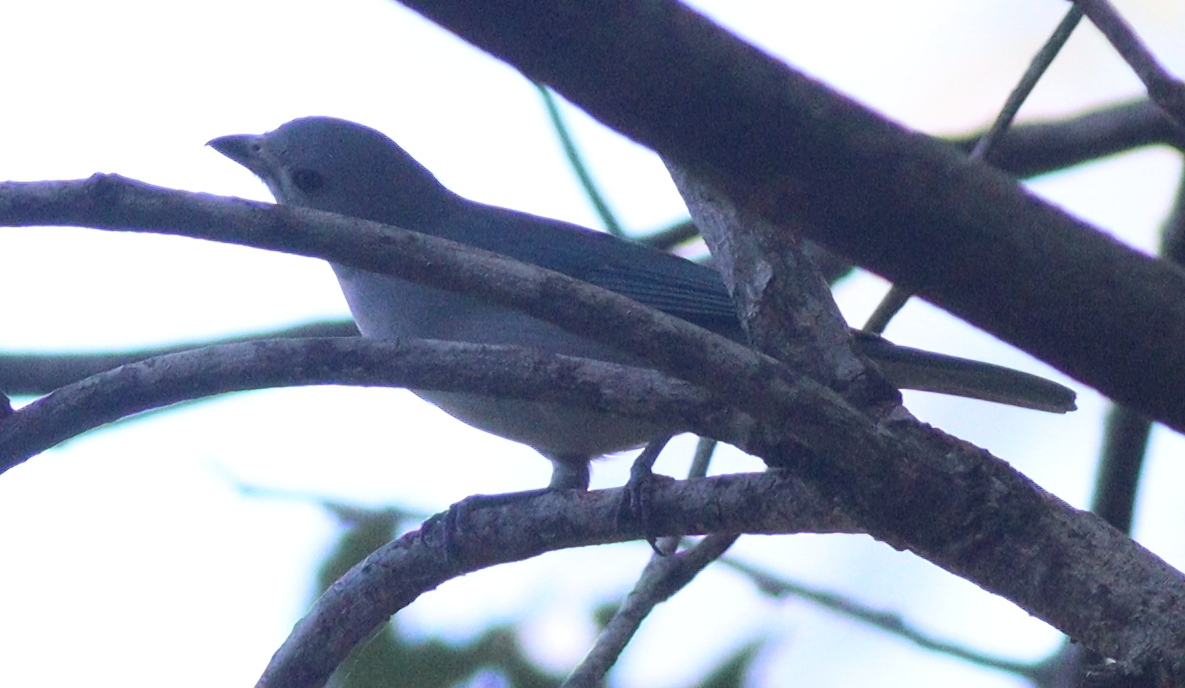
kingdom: Animalia
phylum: Chordata
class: Aves
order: Passeriformes
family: Thraupidae
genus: Thraupis
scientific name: Thraupis sayaca
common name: Sayaca tanager
